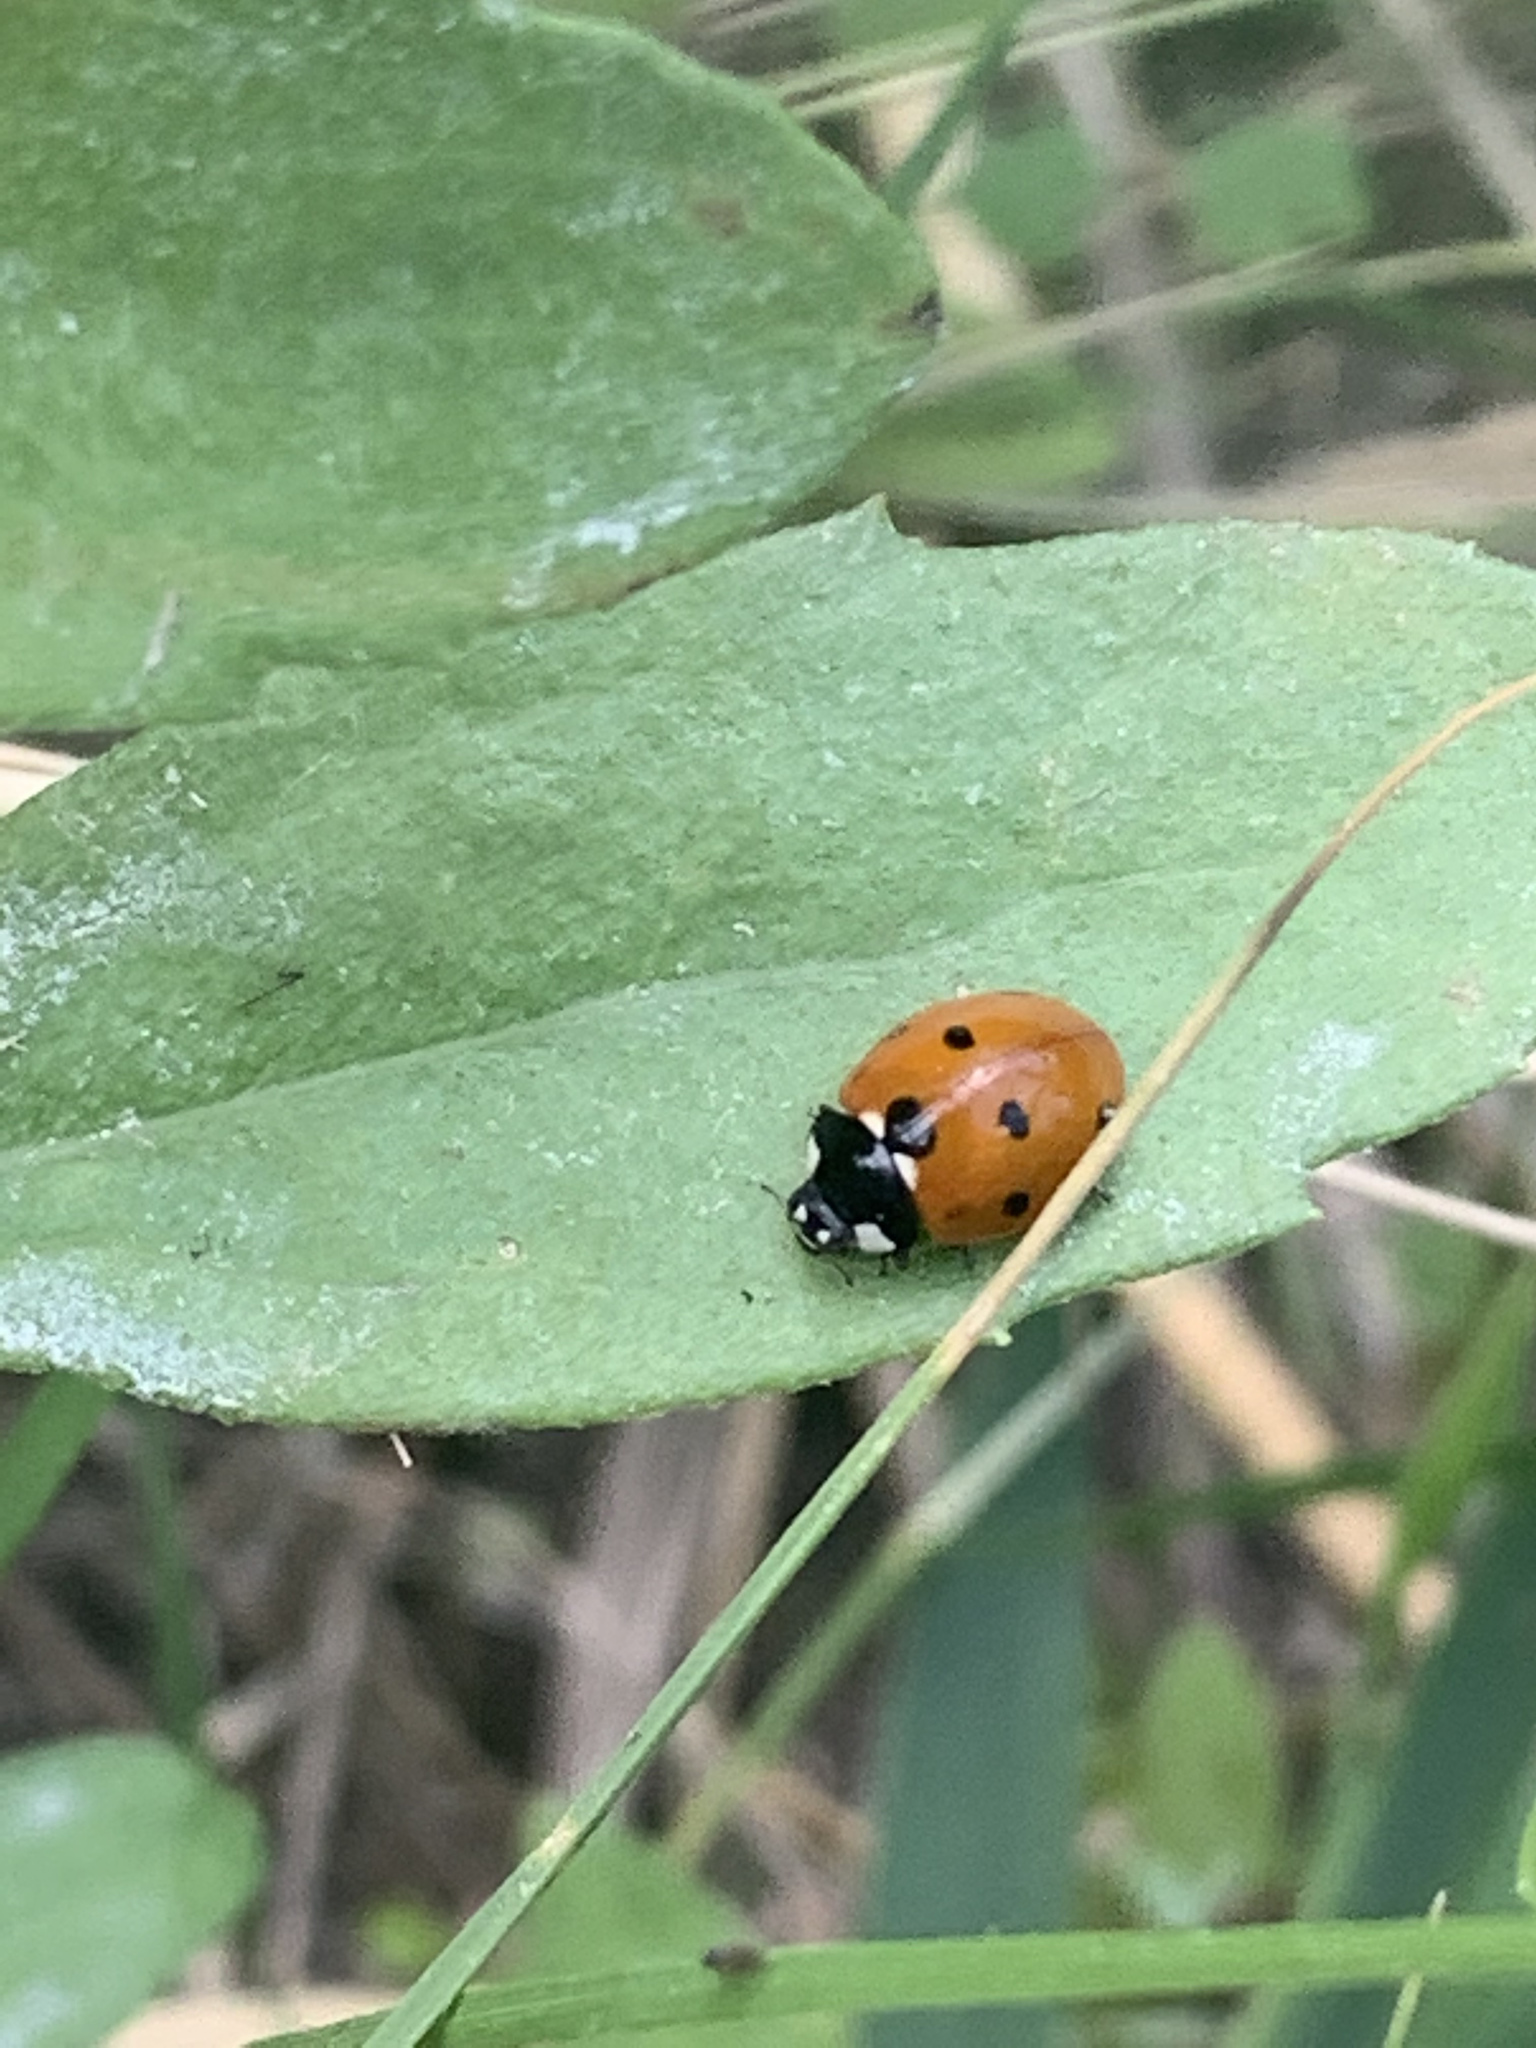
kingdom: Animalia
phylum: Arthropoda
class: Insecta
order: Coleoptera
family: Coccinellidae
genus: Coccinella
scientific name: Coccinella septempunctata
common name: Sevenspotted lady beetle
